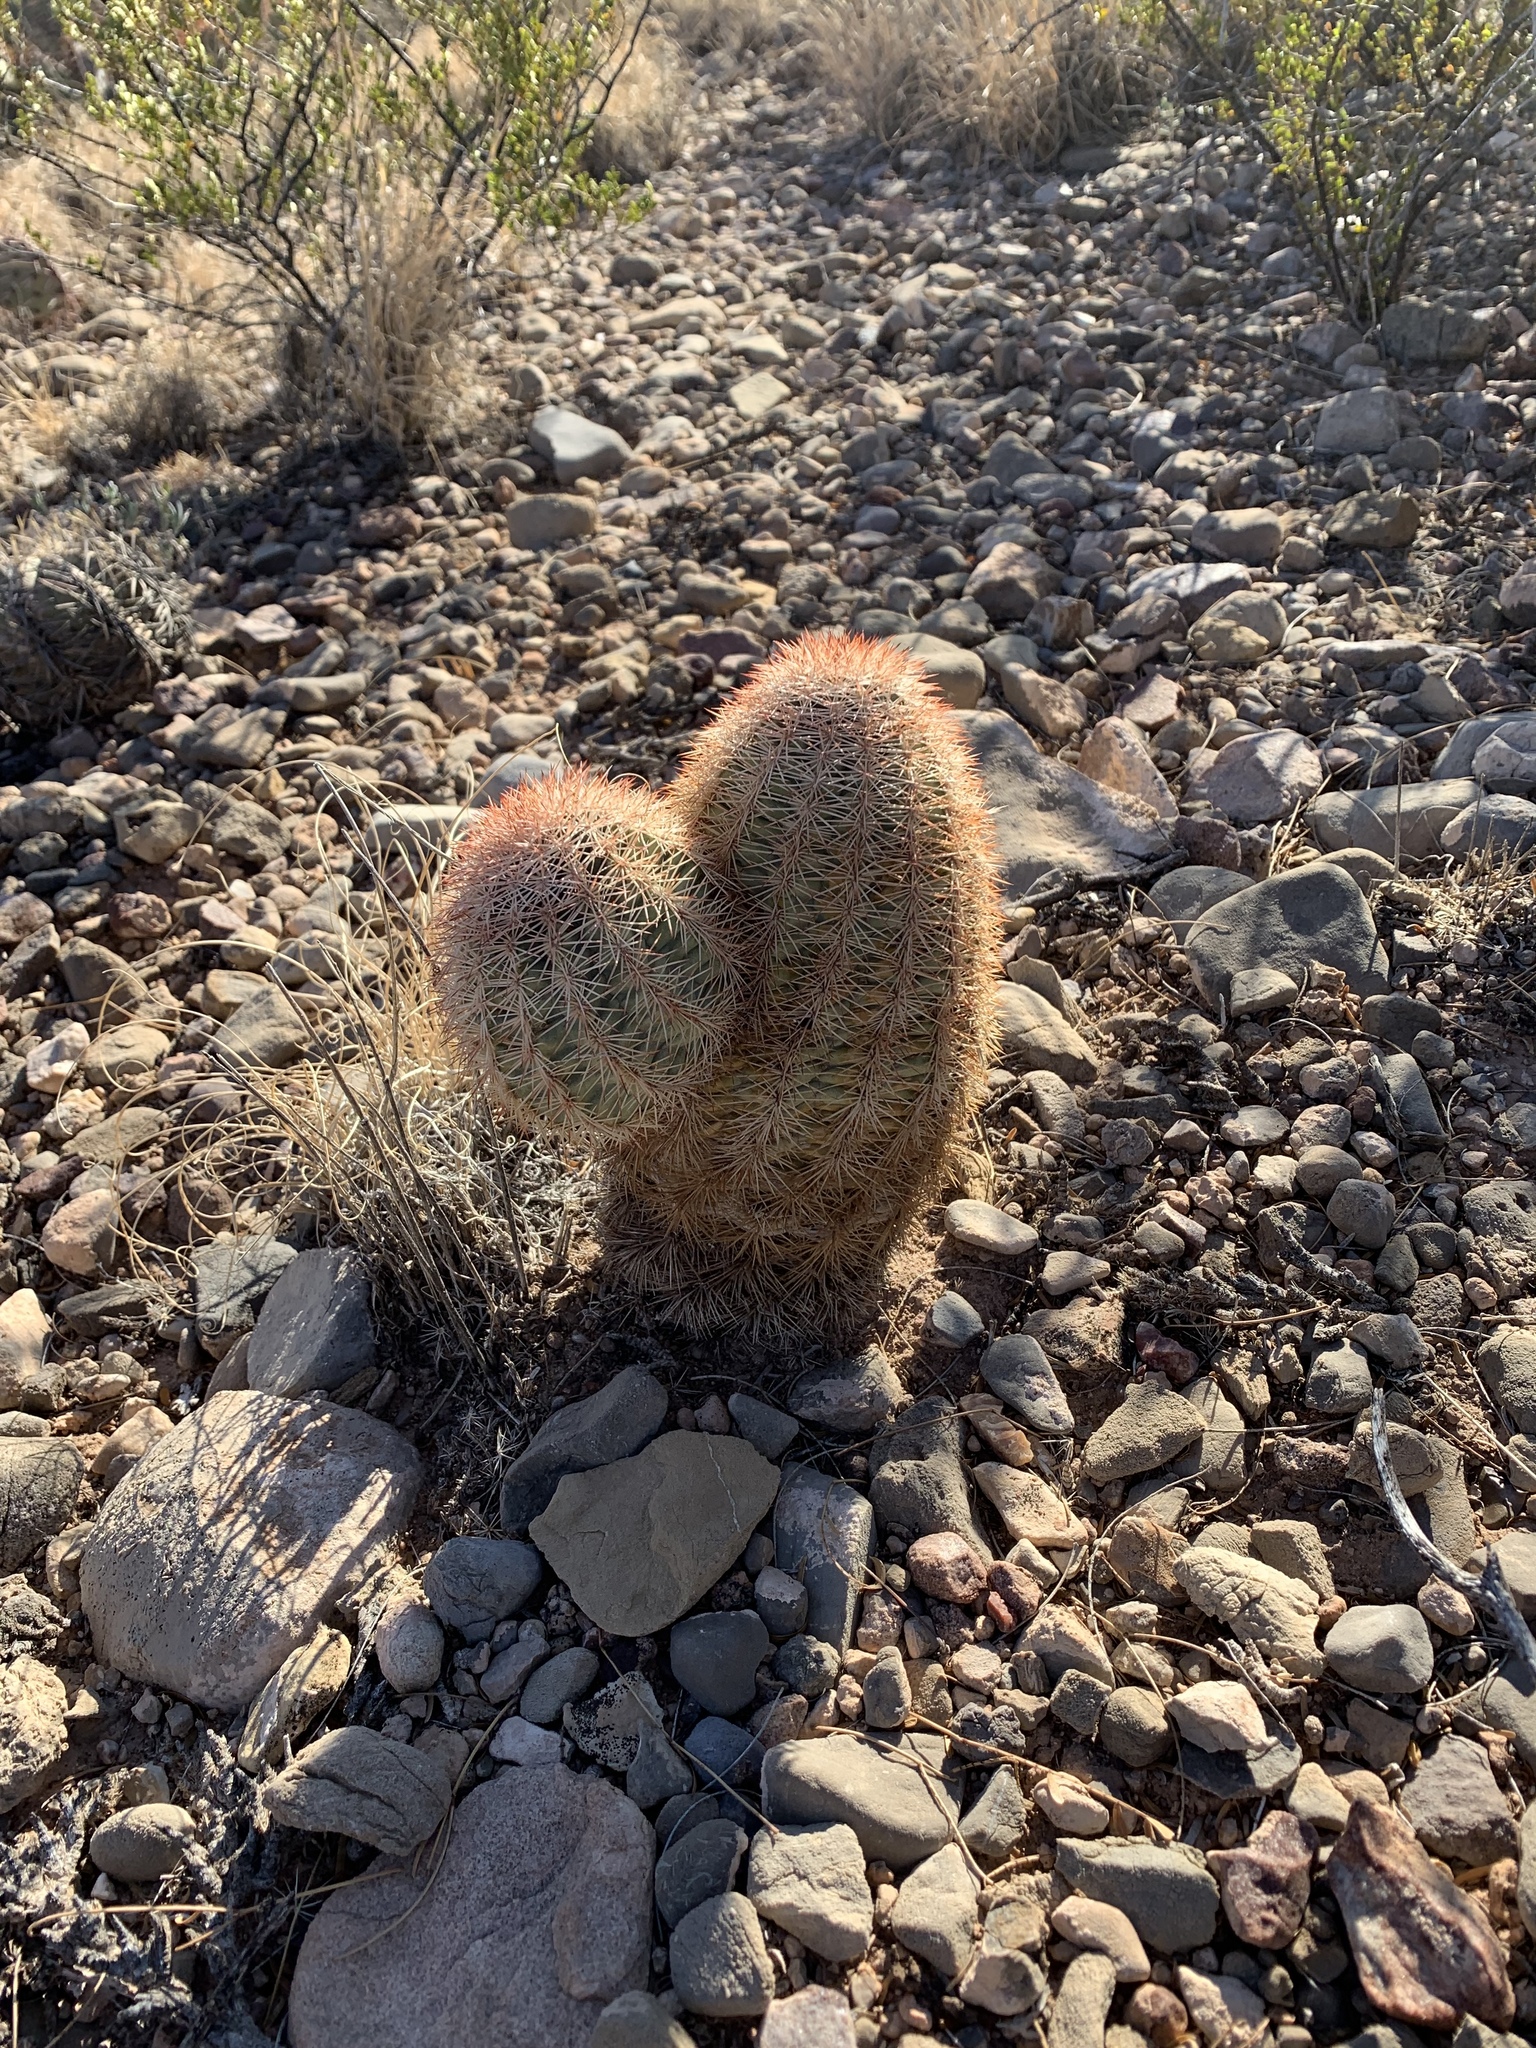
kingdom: Plantae
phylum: Tracheophyta
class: Magnoliopsida
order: Caryophyllales
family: Cactaceae
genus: Echinocereus
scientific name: Echinocereus dasyacanthus
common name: Spiny hedgehog cactus
